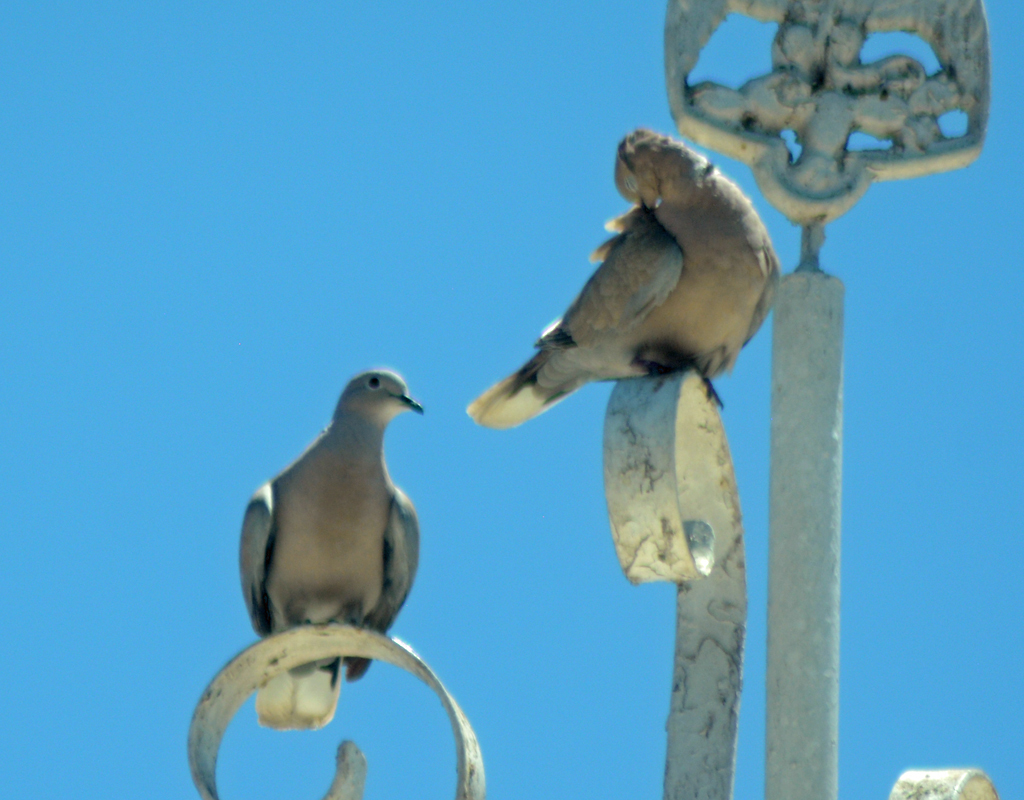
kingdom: Animalia
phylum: Chordata
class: Aves
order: Columbiformes
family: Columbidae
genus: Streptopelia
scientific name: Streptopelia decaocto
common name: Eurasian collared dove
